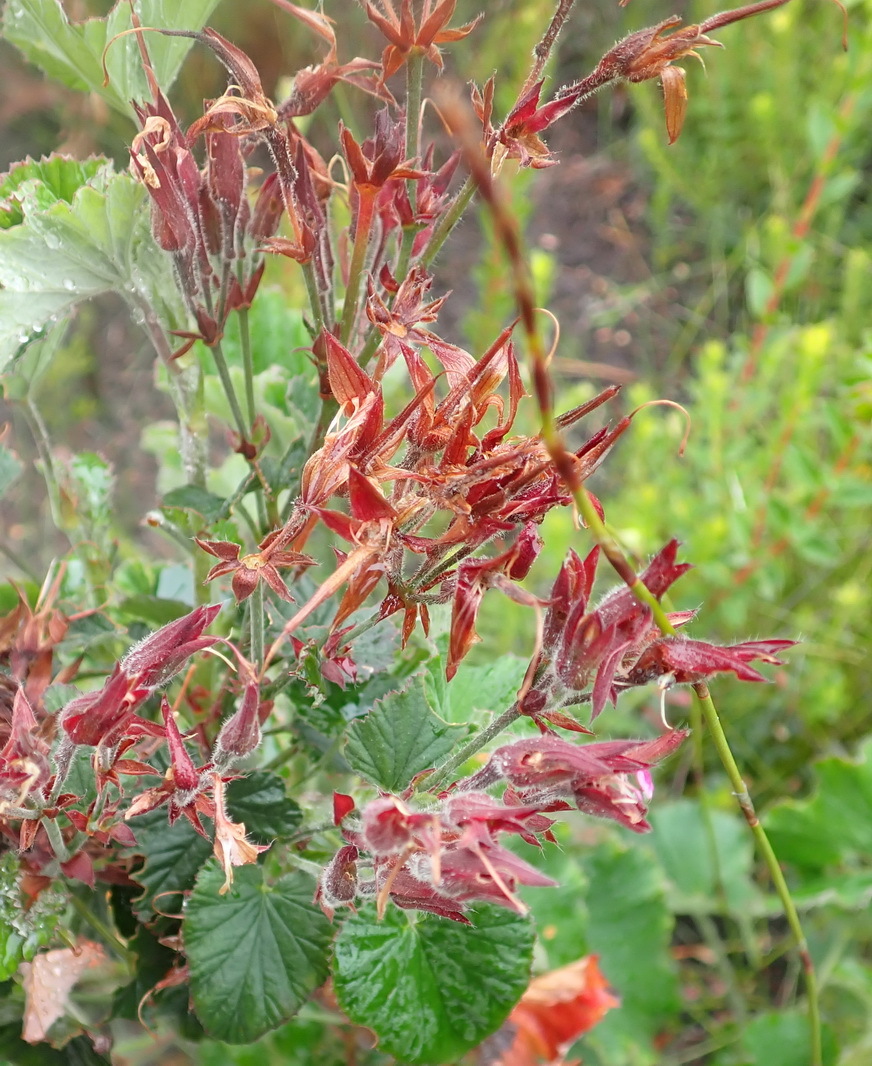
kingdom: Plantae
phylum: Tracheophyta
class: Magnoliopsida
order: Geraniales
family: Geraniaceae
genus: Pelargonium
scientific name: Pelargonium cordifolium
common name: Heart-leaf pelargonium
